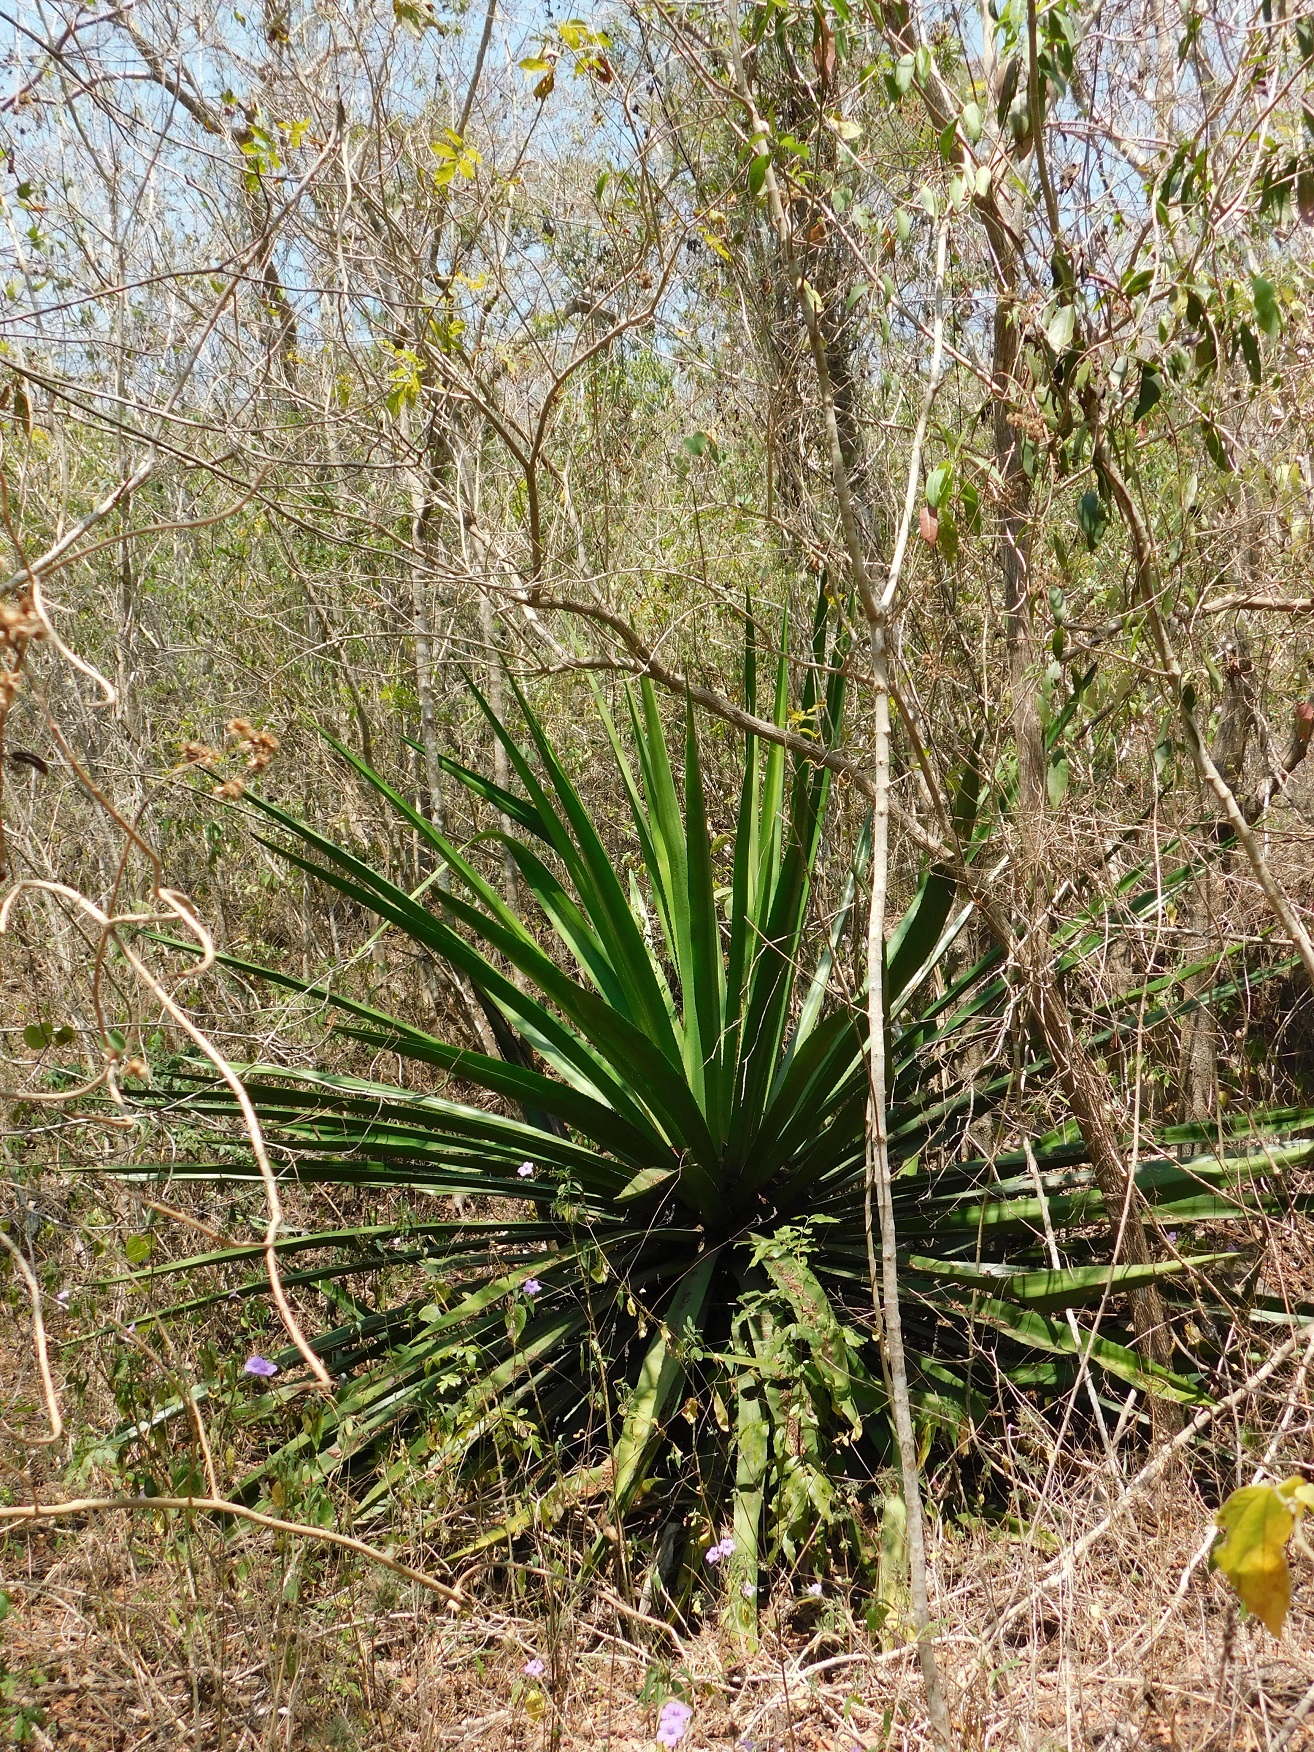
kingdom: Plantae
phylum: Tracheophyta
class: Liliopsida
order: Asparagales
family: Asparagaceae
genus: Furcraea
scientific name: Furcraea cabuya
